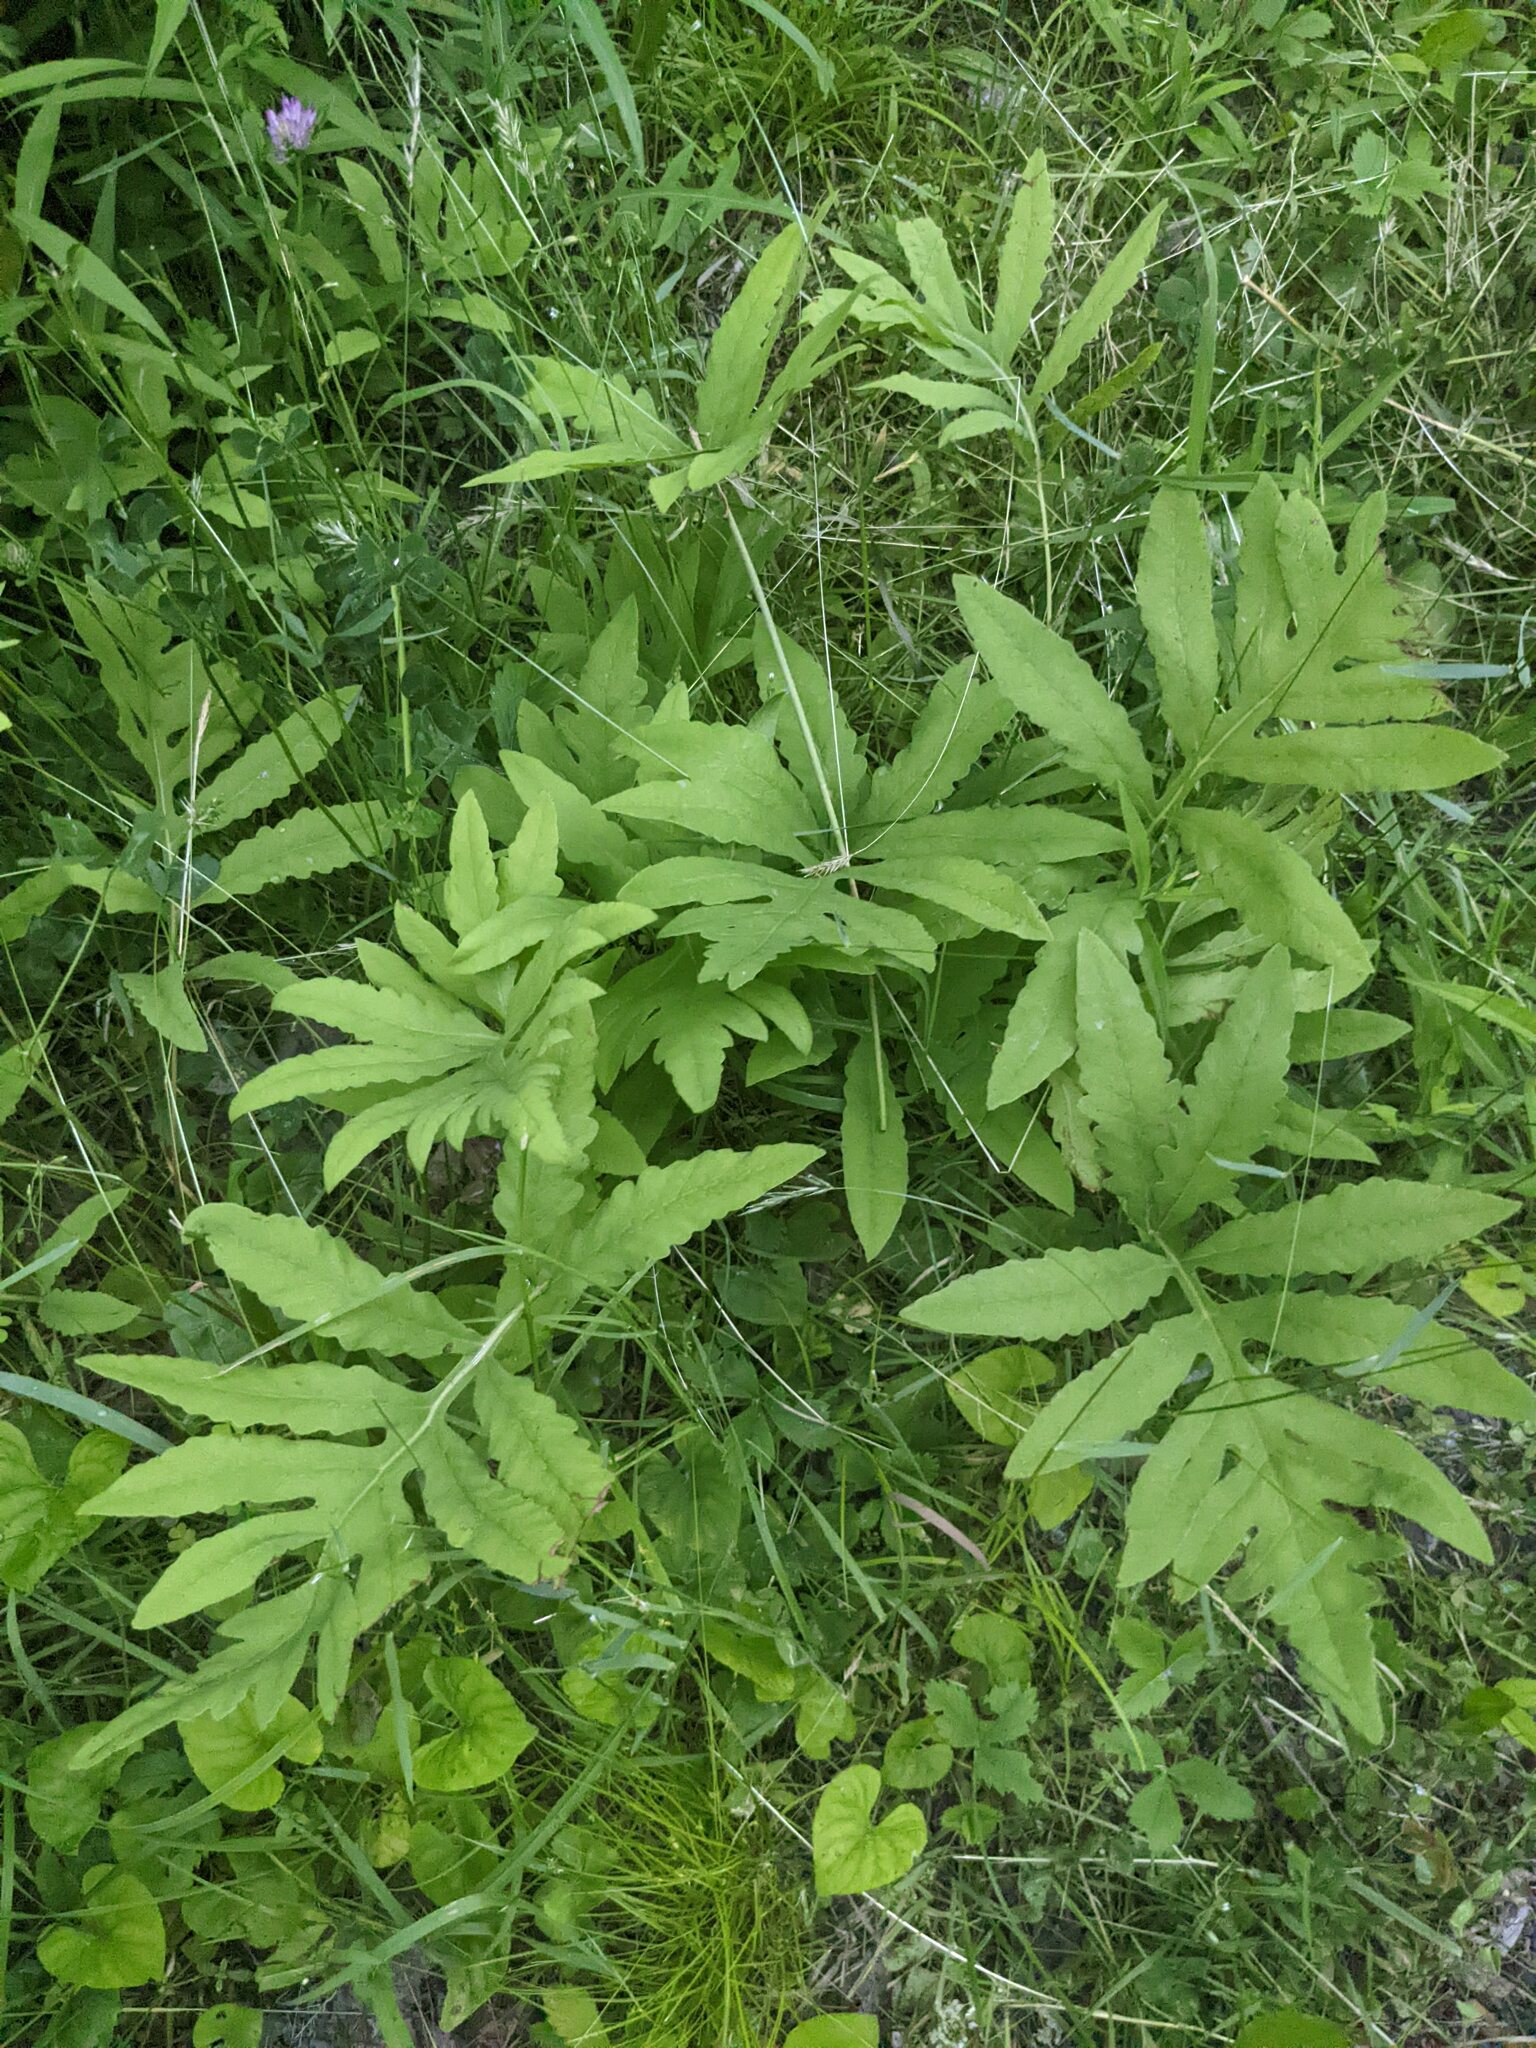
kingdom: Plantae
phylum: Tracheophyta
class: Polypodiopsida
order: Polypodiales
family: Onocleaceae
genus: Onoclea
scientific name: Onoclea sensibilis
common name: Sensitive fern
